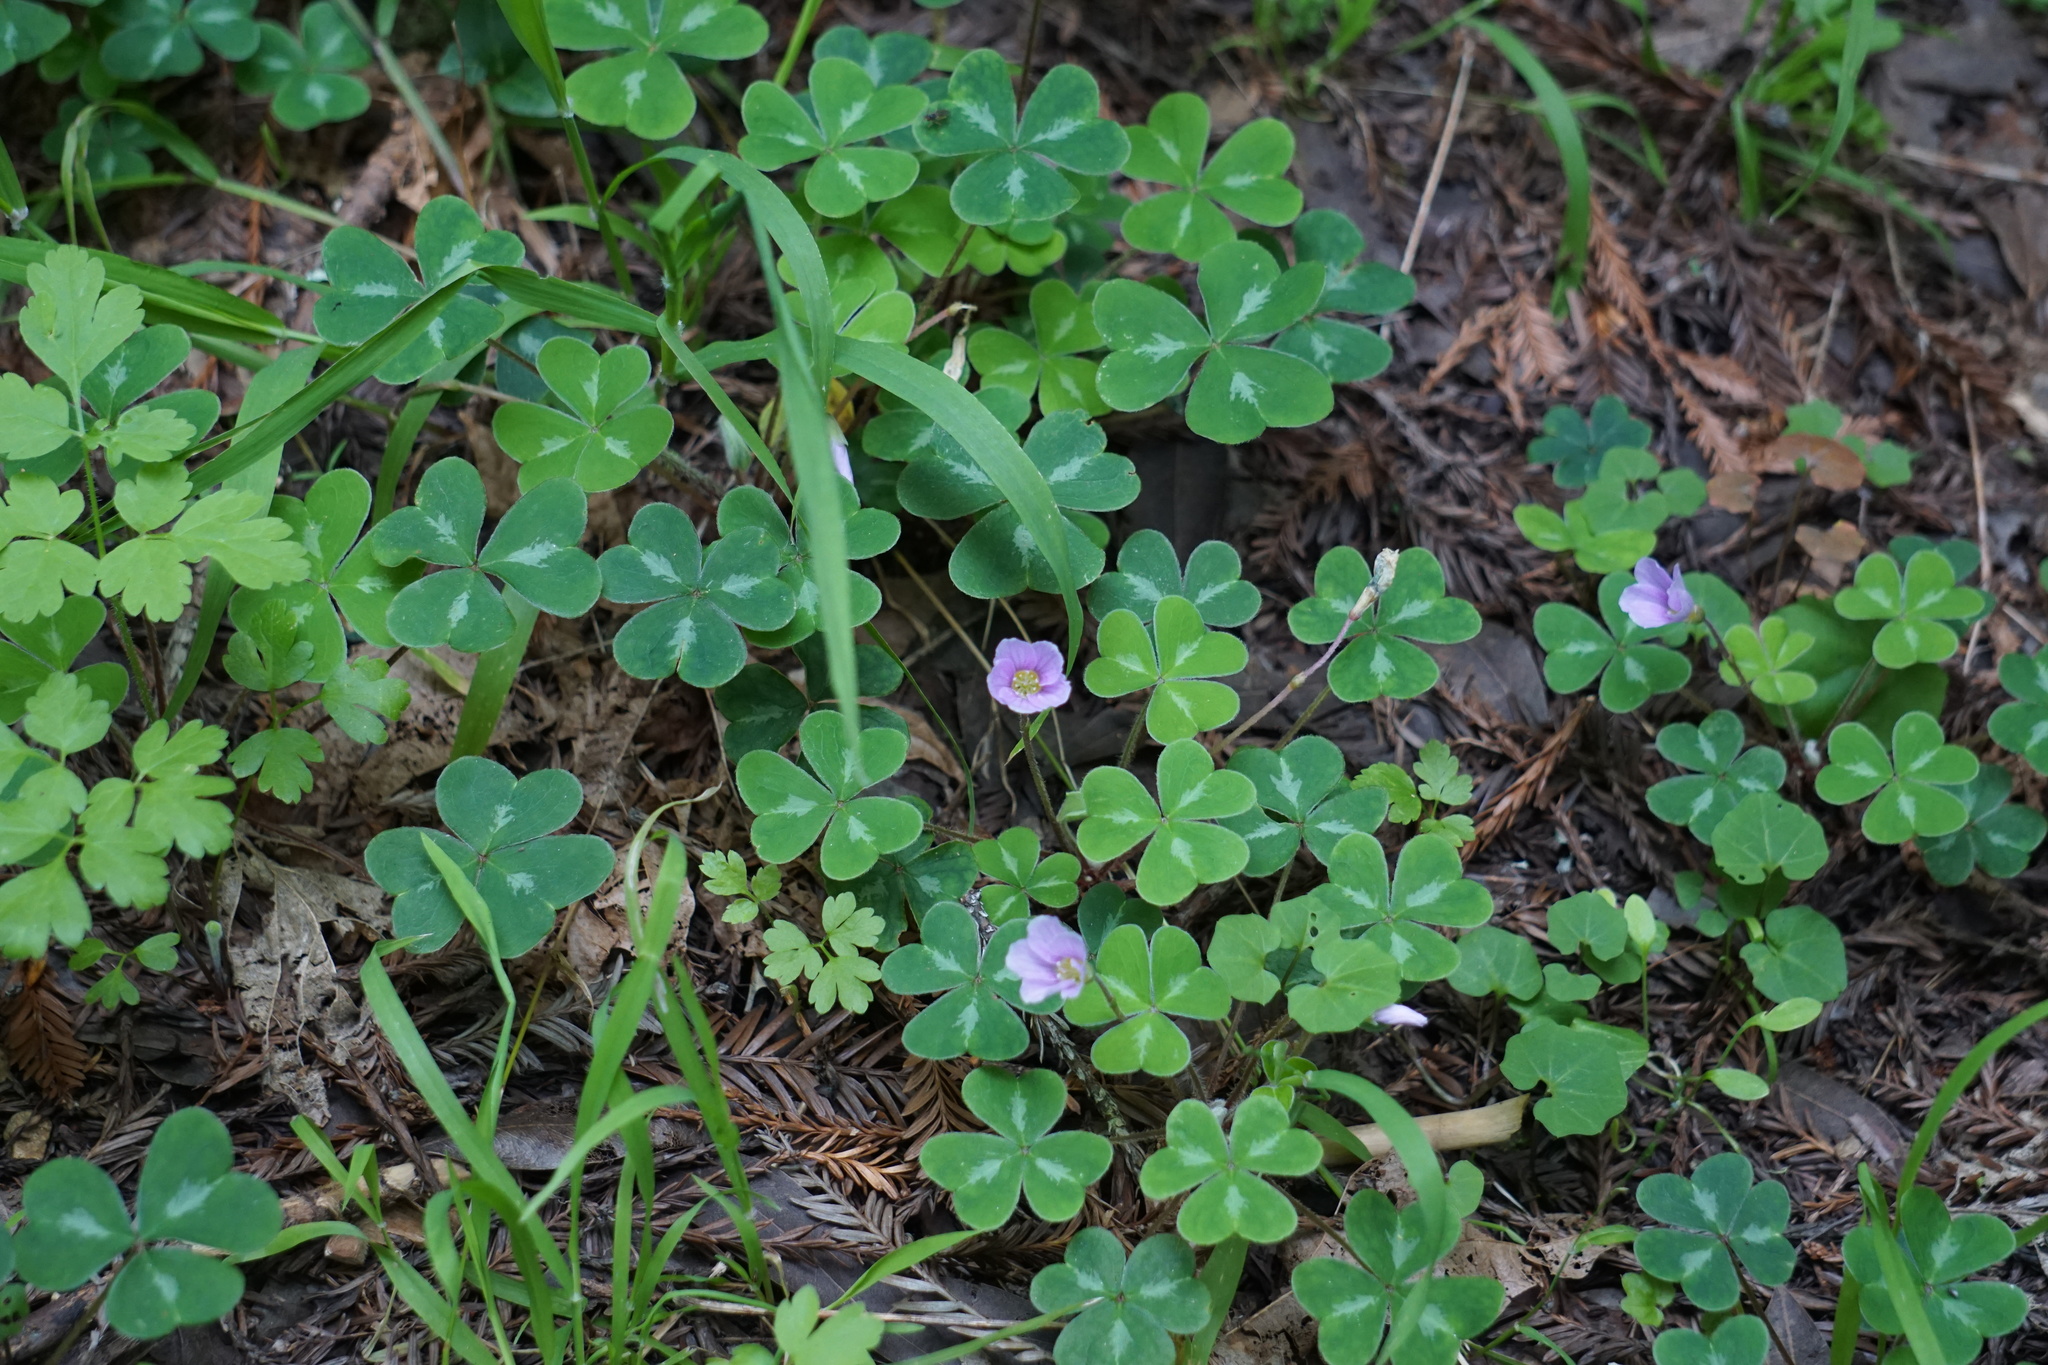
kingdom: Plantae
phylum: Tracheophyta
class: Magnoliopsida
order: Oxalidales
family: Oxalidaceae
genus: Oxalis
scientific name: Oxalis oregana
